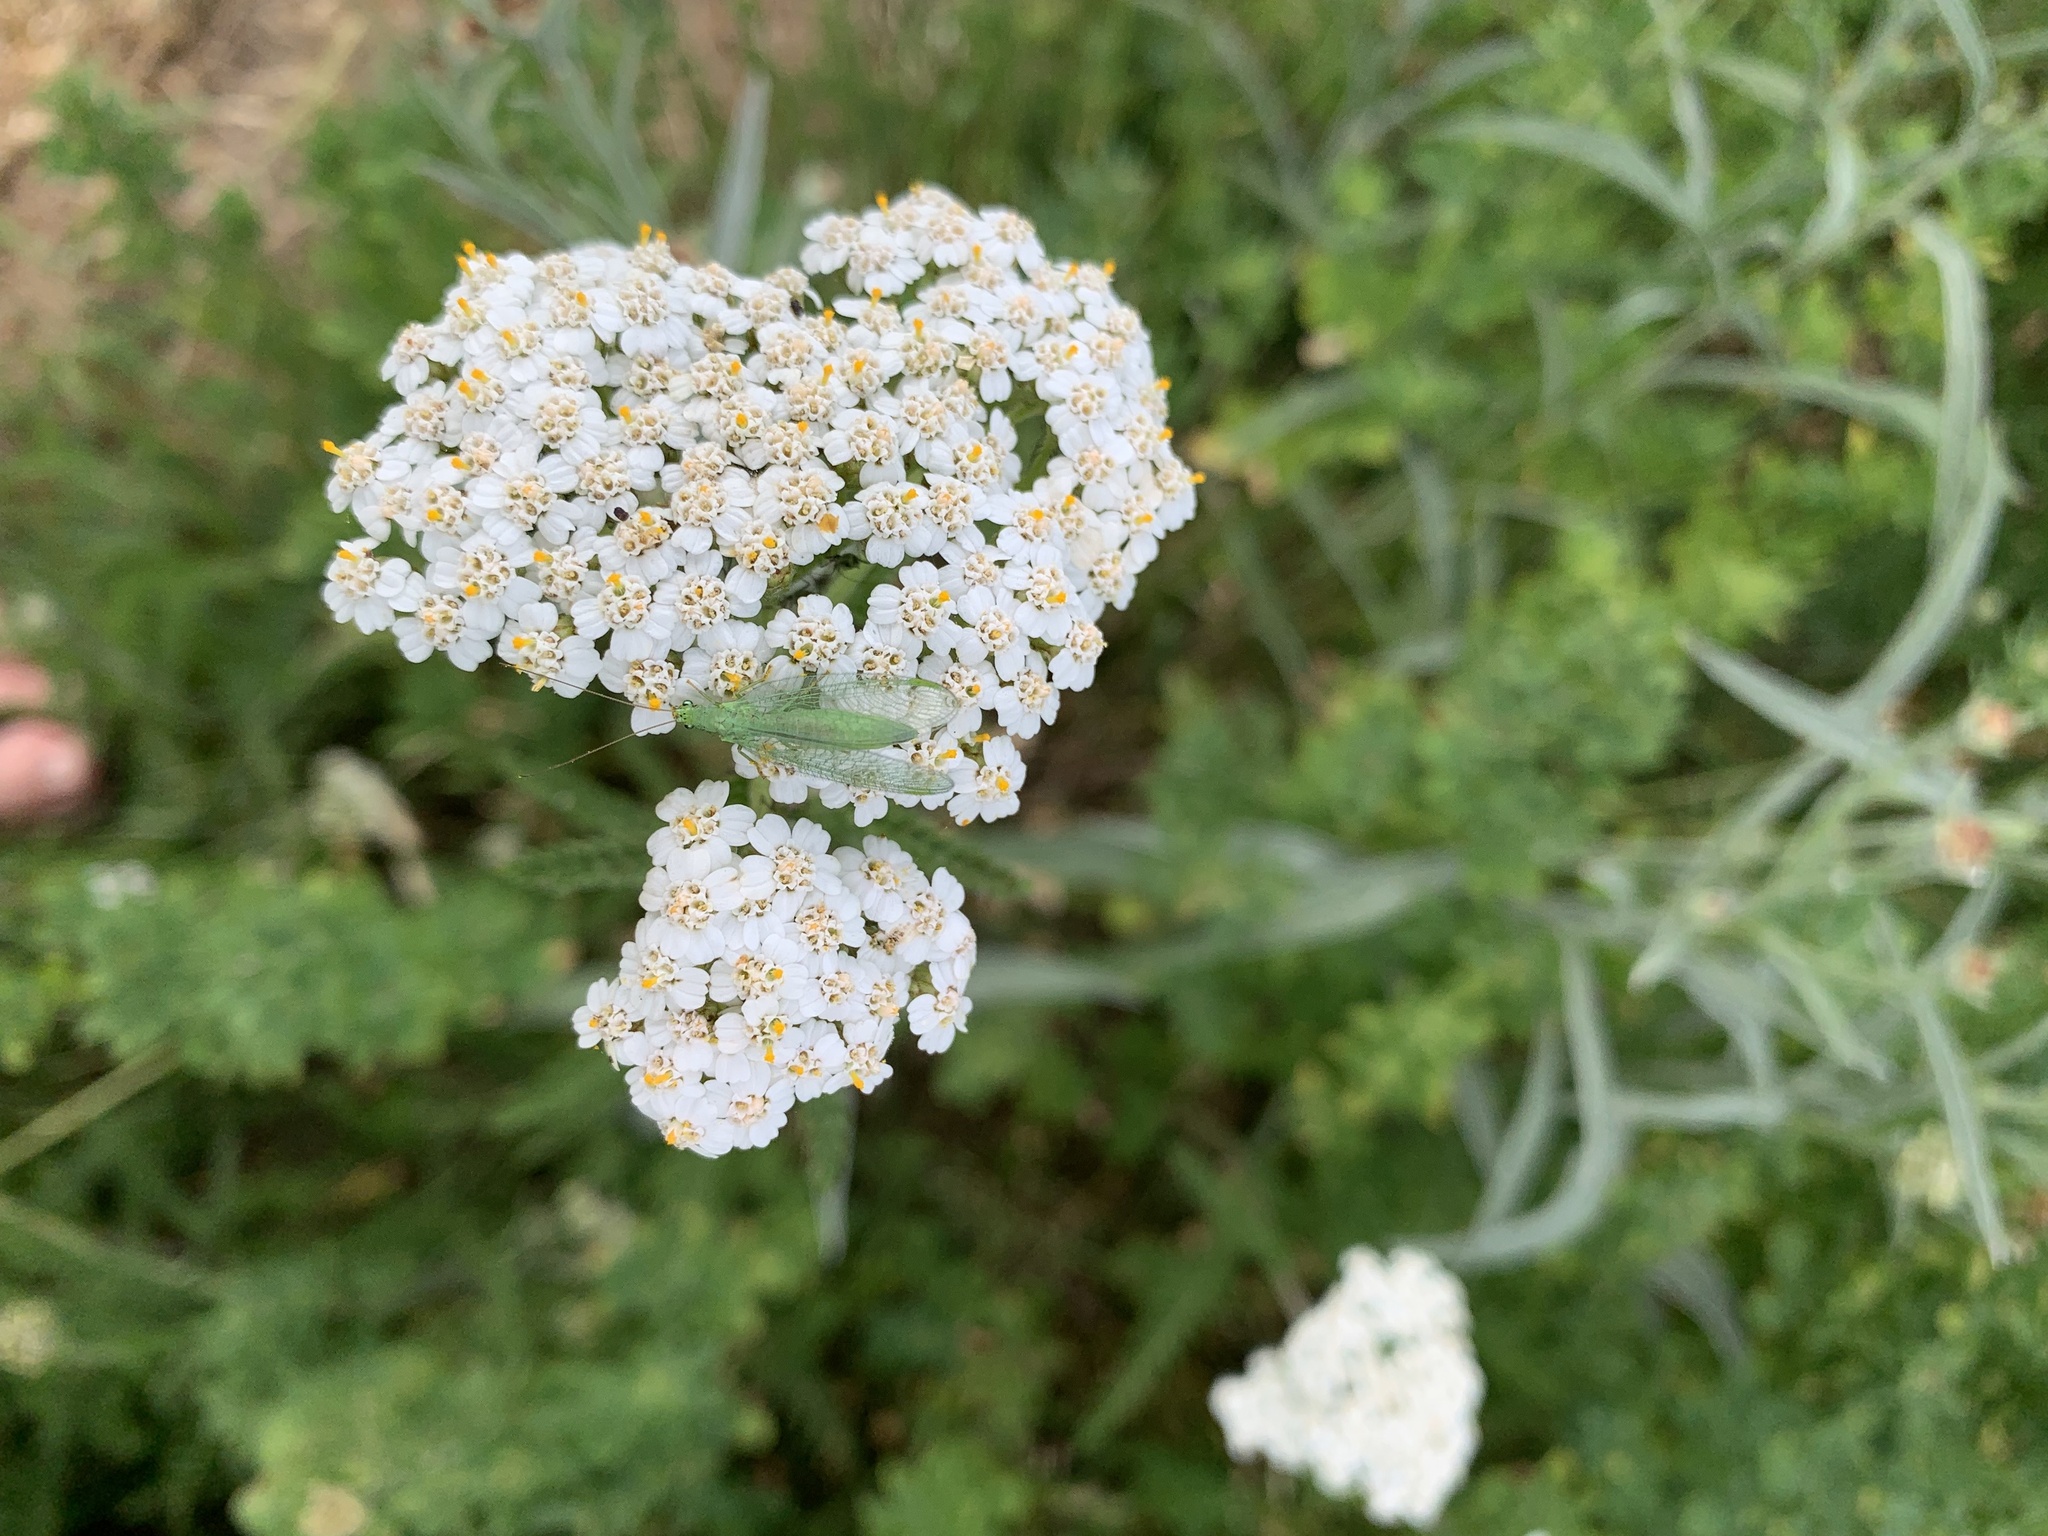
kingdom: Plantae
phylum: Tracheophyta
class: Magnoliopsida
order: Asterales
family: Asteraceae
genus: Achillea
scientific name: Achillea millefolium
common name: Yarrow
